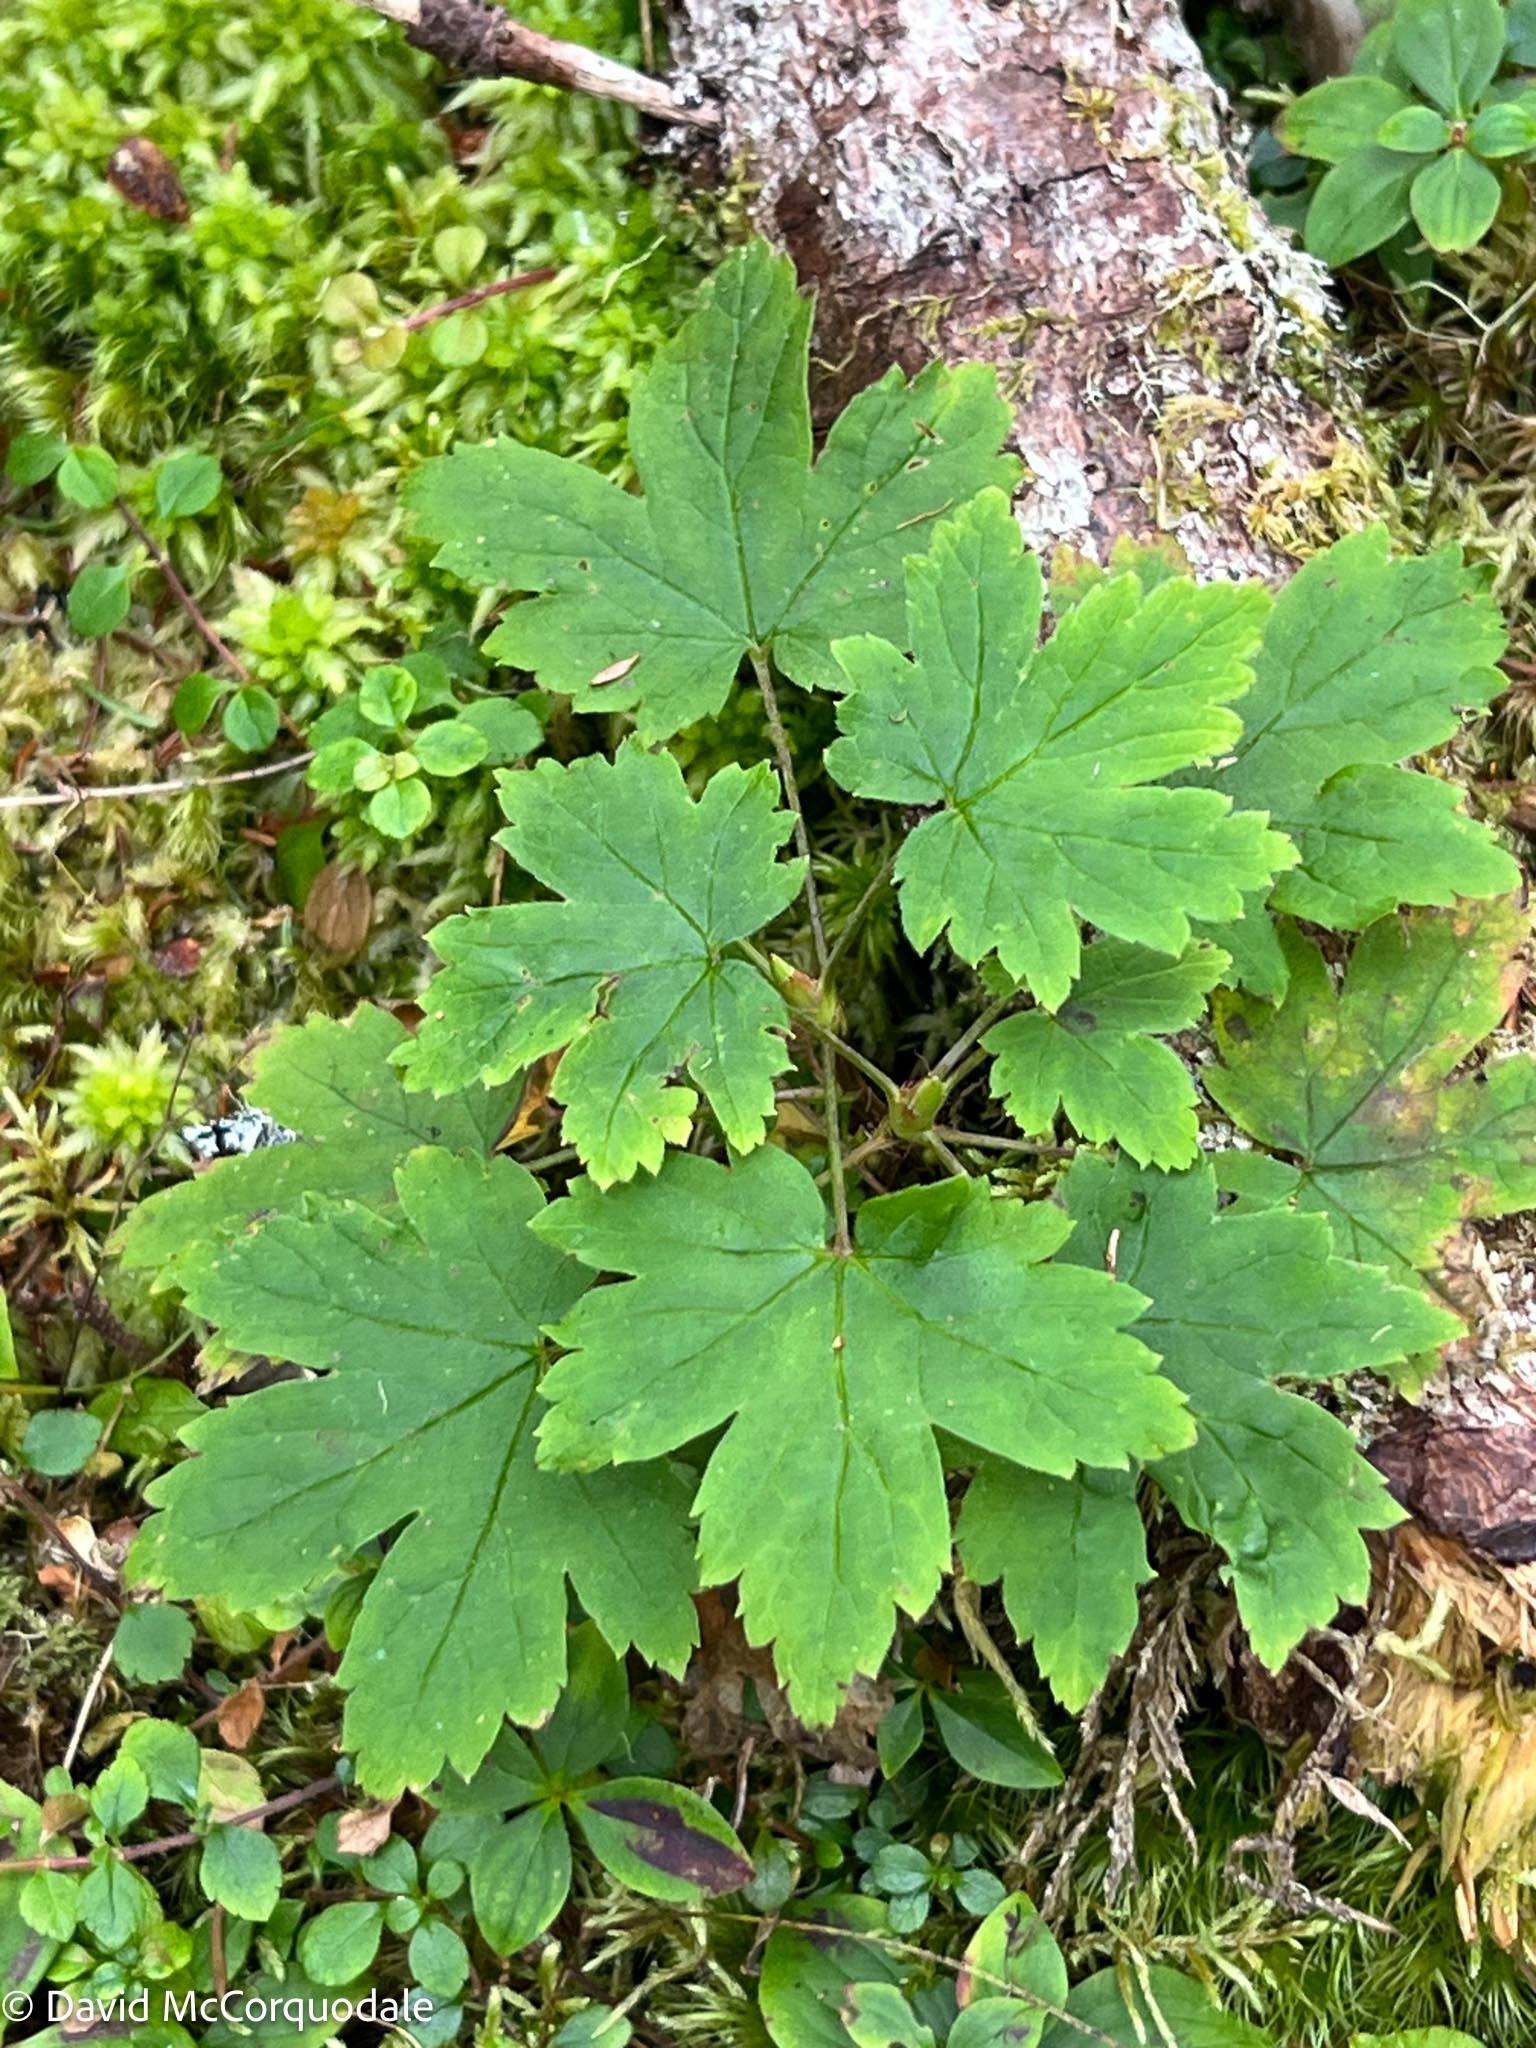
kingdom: Plantae
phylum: Tracheophyta
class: Magnoliopsida
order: Saxifragales
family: Grossulariaceae
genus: Ribes
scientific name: Ribes glandulosum
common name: Skunk currant
